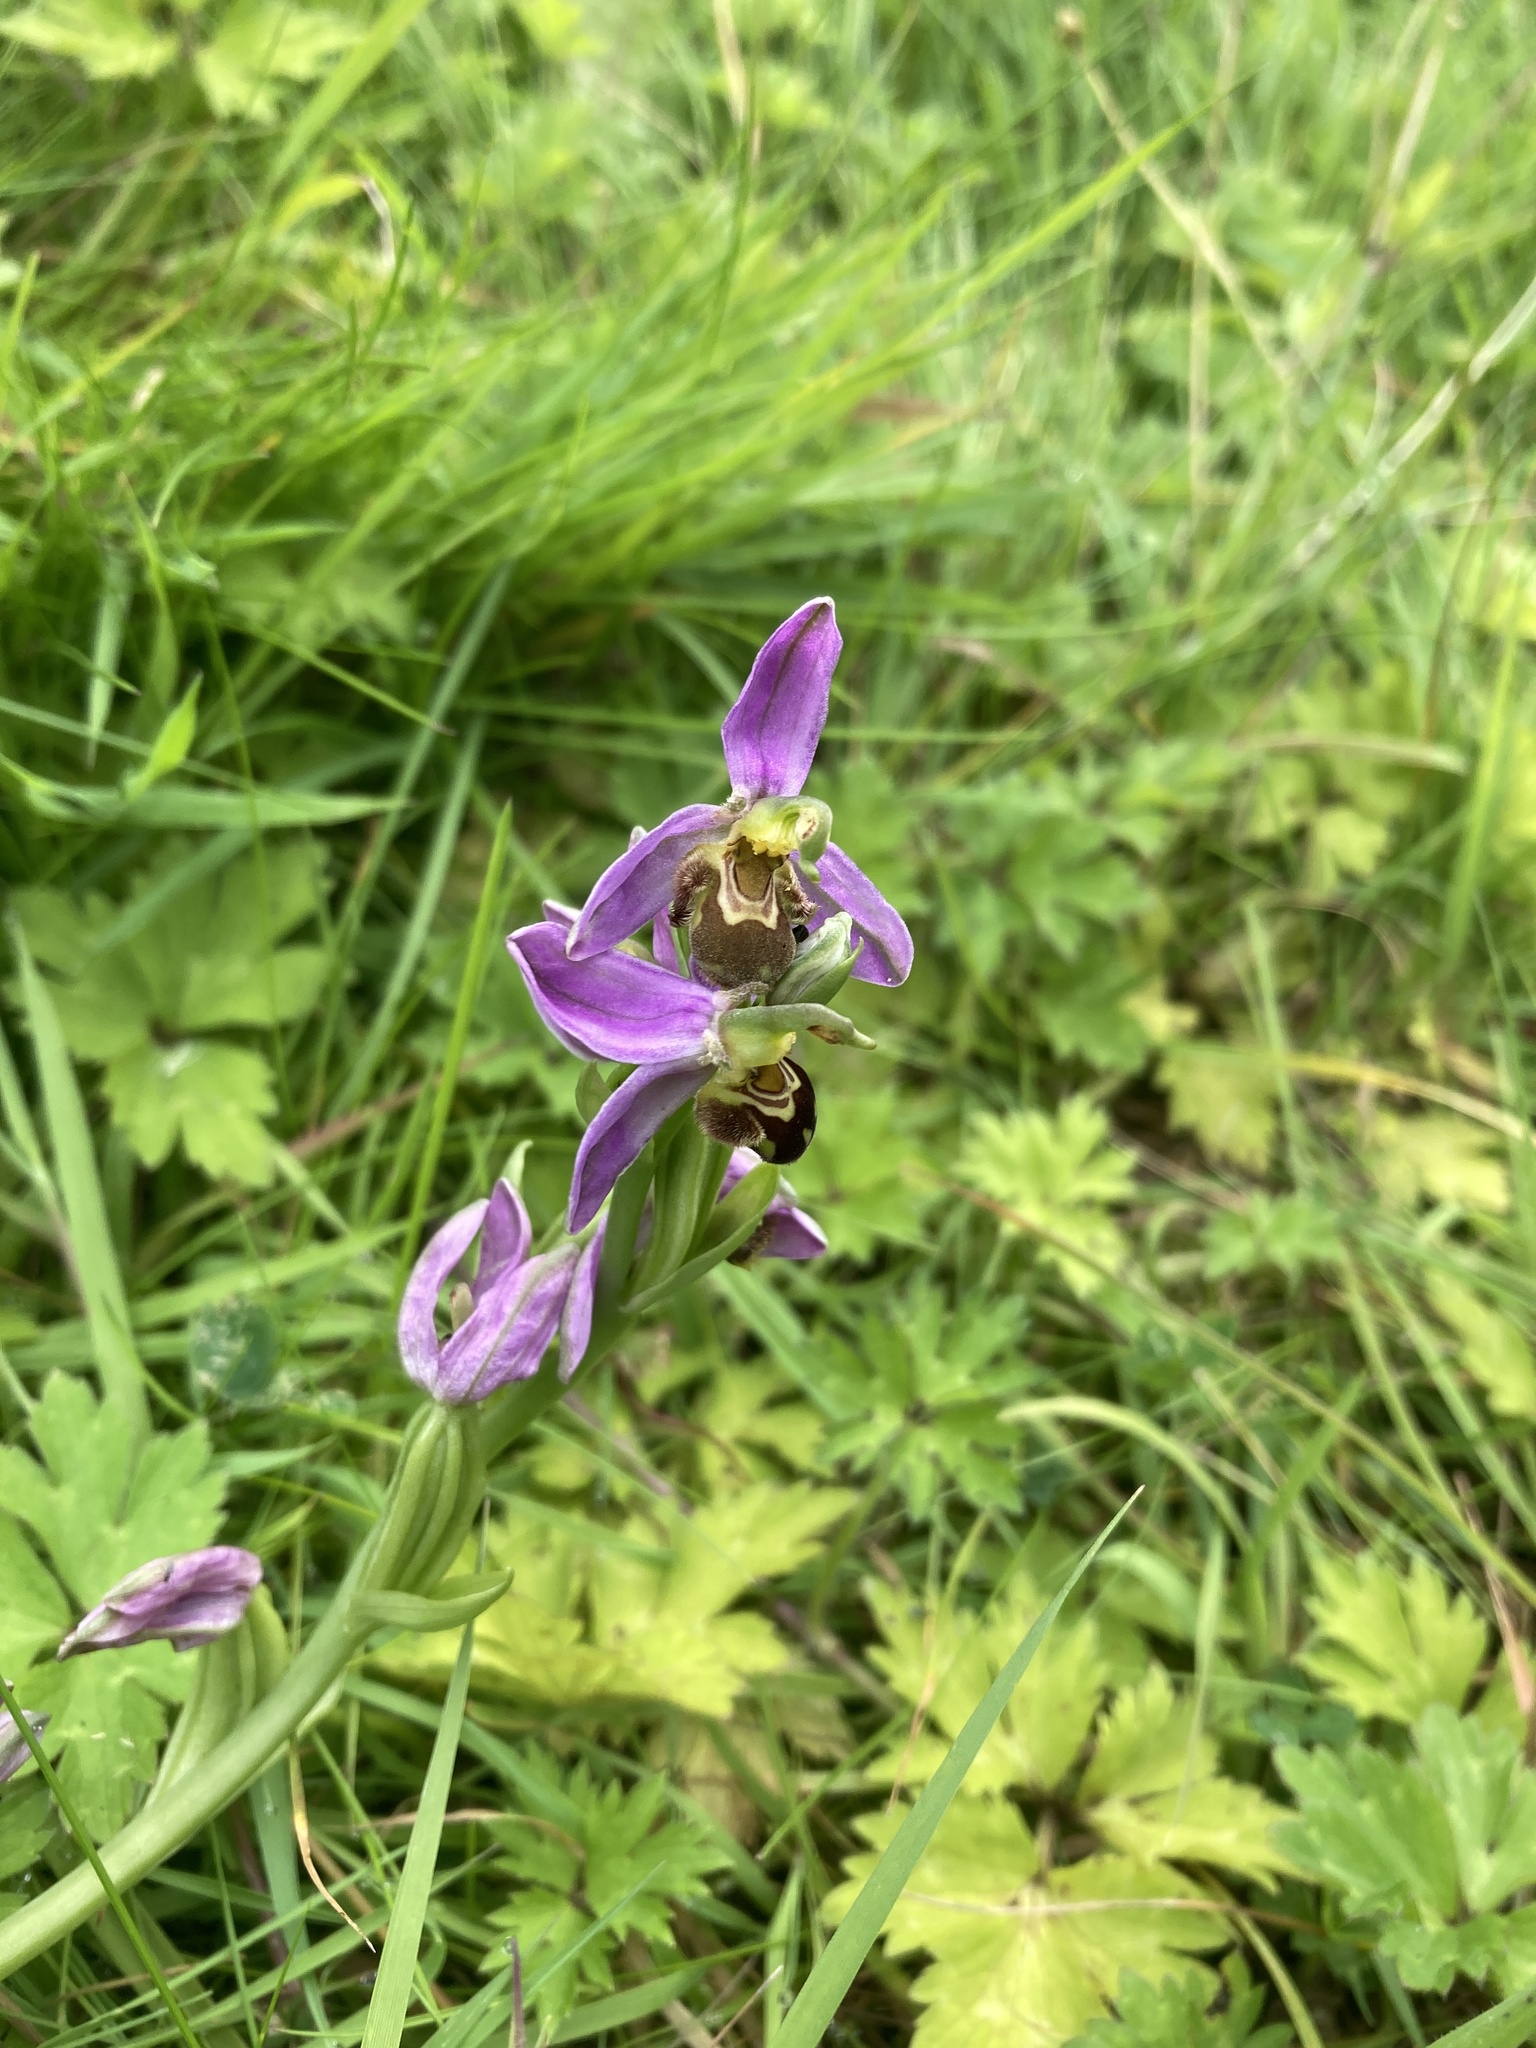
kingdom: Plantae
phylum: Tracheophyta
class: Liliopsida
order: Asparagales
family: Orchidaceae
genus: Ophrys
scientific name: Ophrys apifera
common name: Bee orchid
